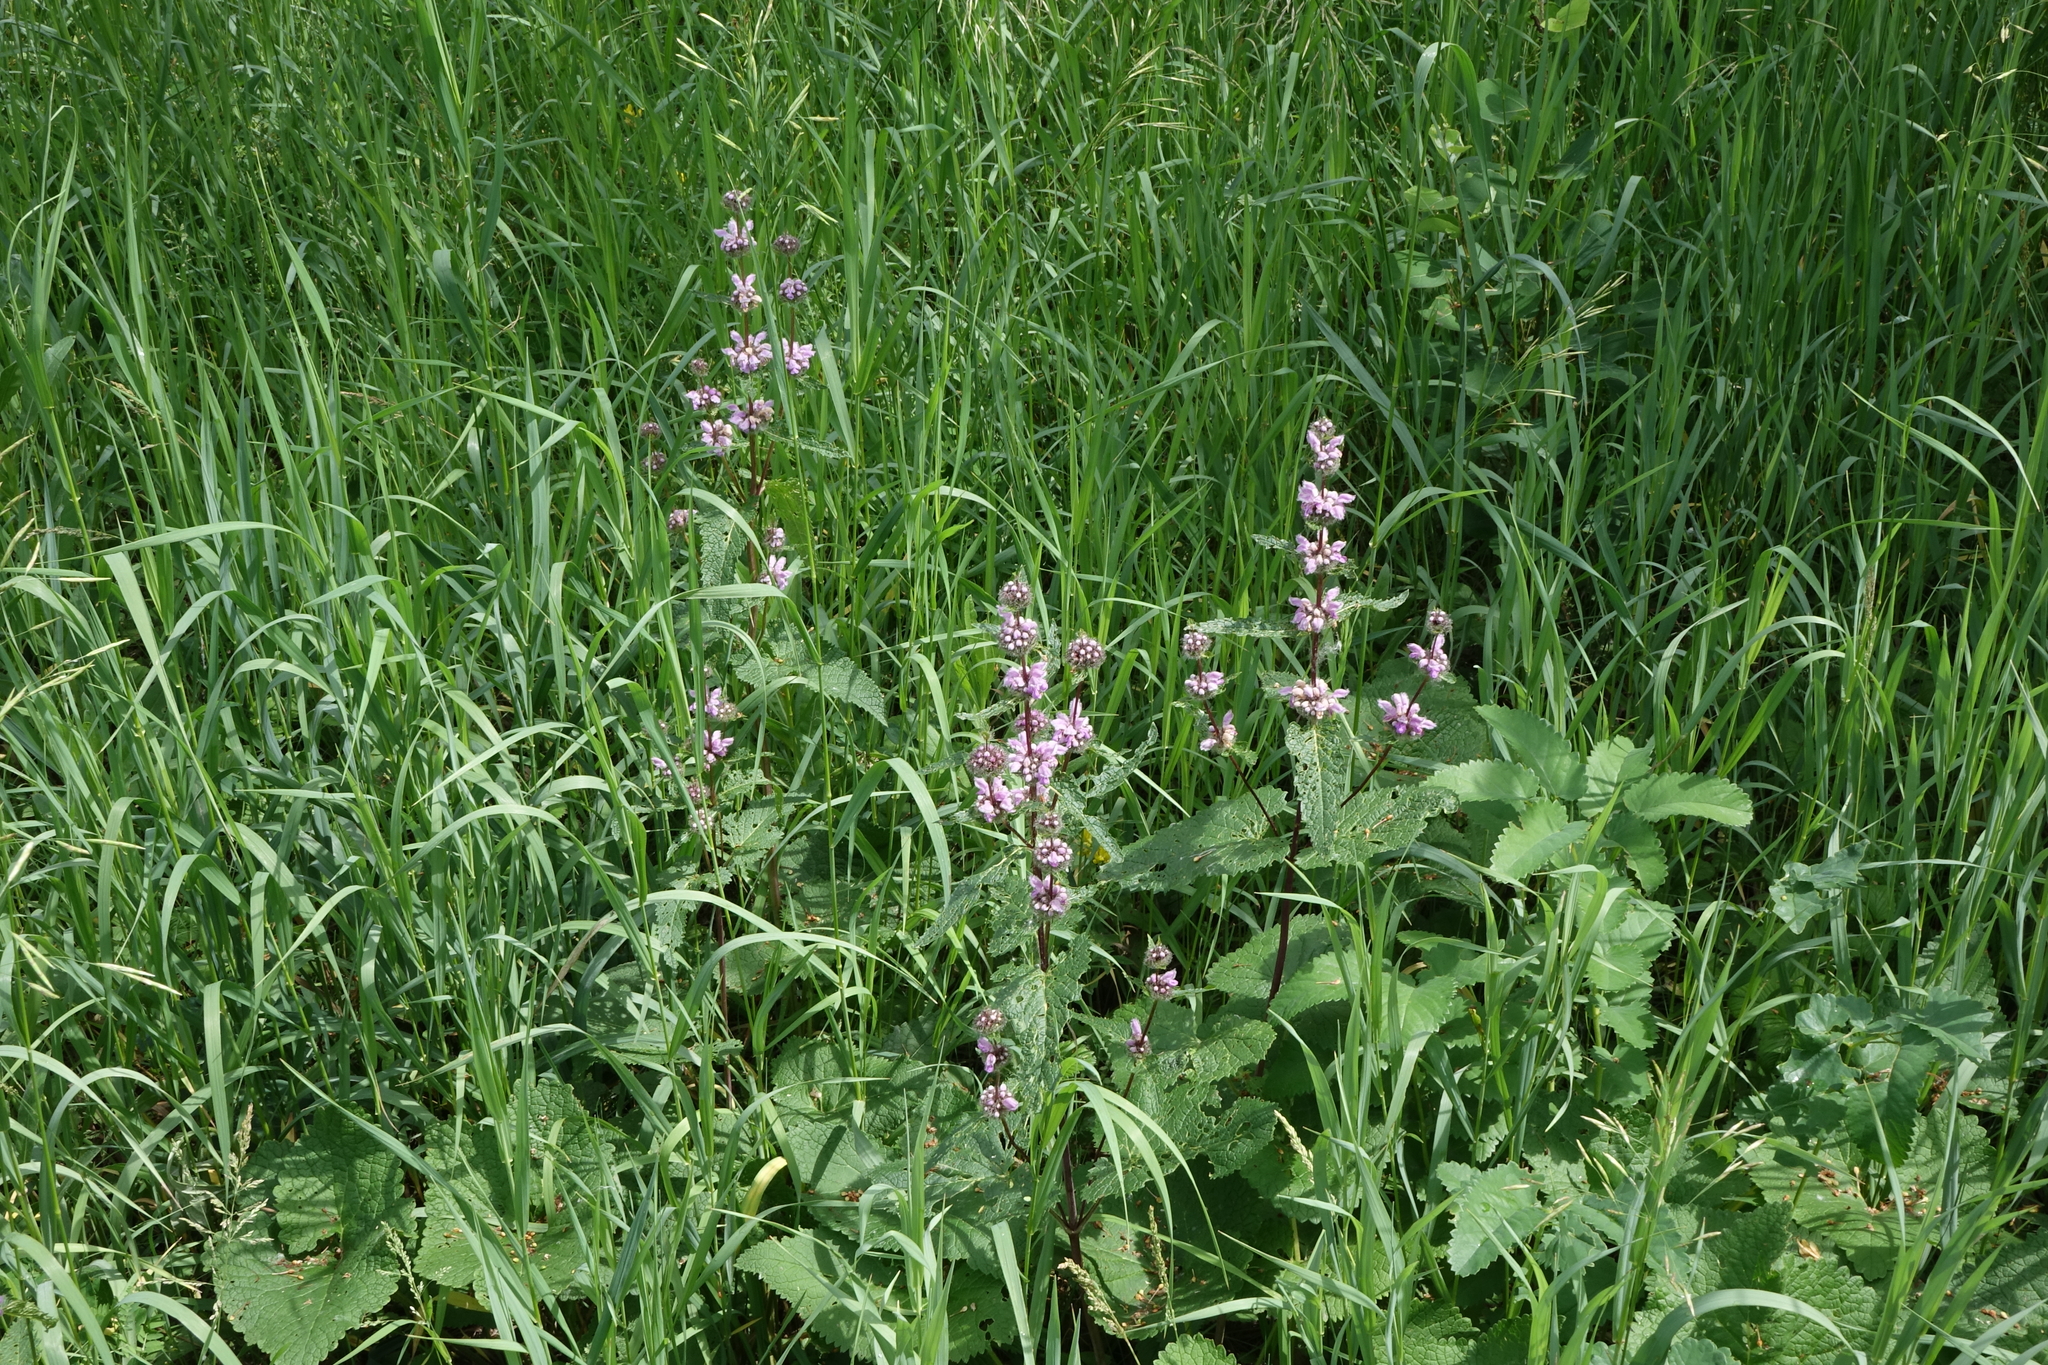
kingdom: Plantae
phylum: Tracheophyta
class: Magnoliopsida
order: Lamiales
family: Lamiaceae
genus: Phlomoides
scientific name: Phlomoides tuberosa
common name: Tuberous jerusalem sage
